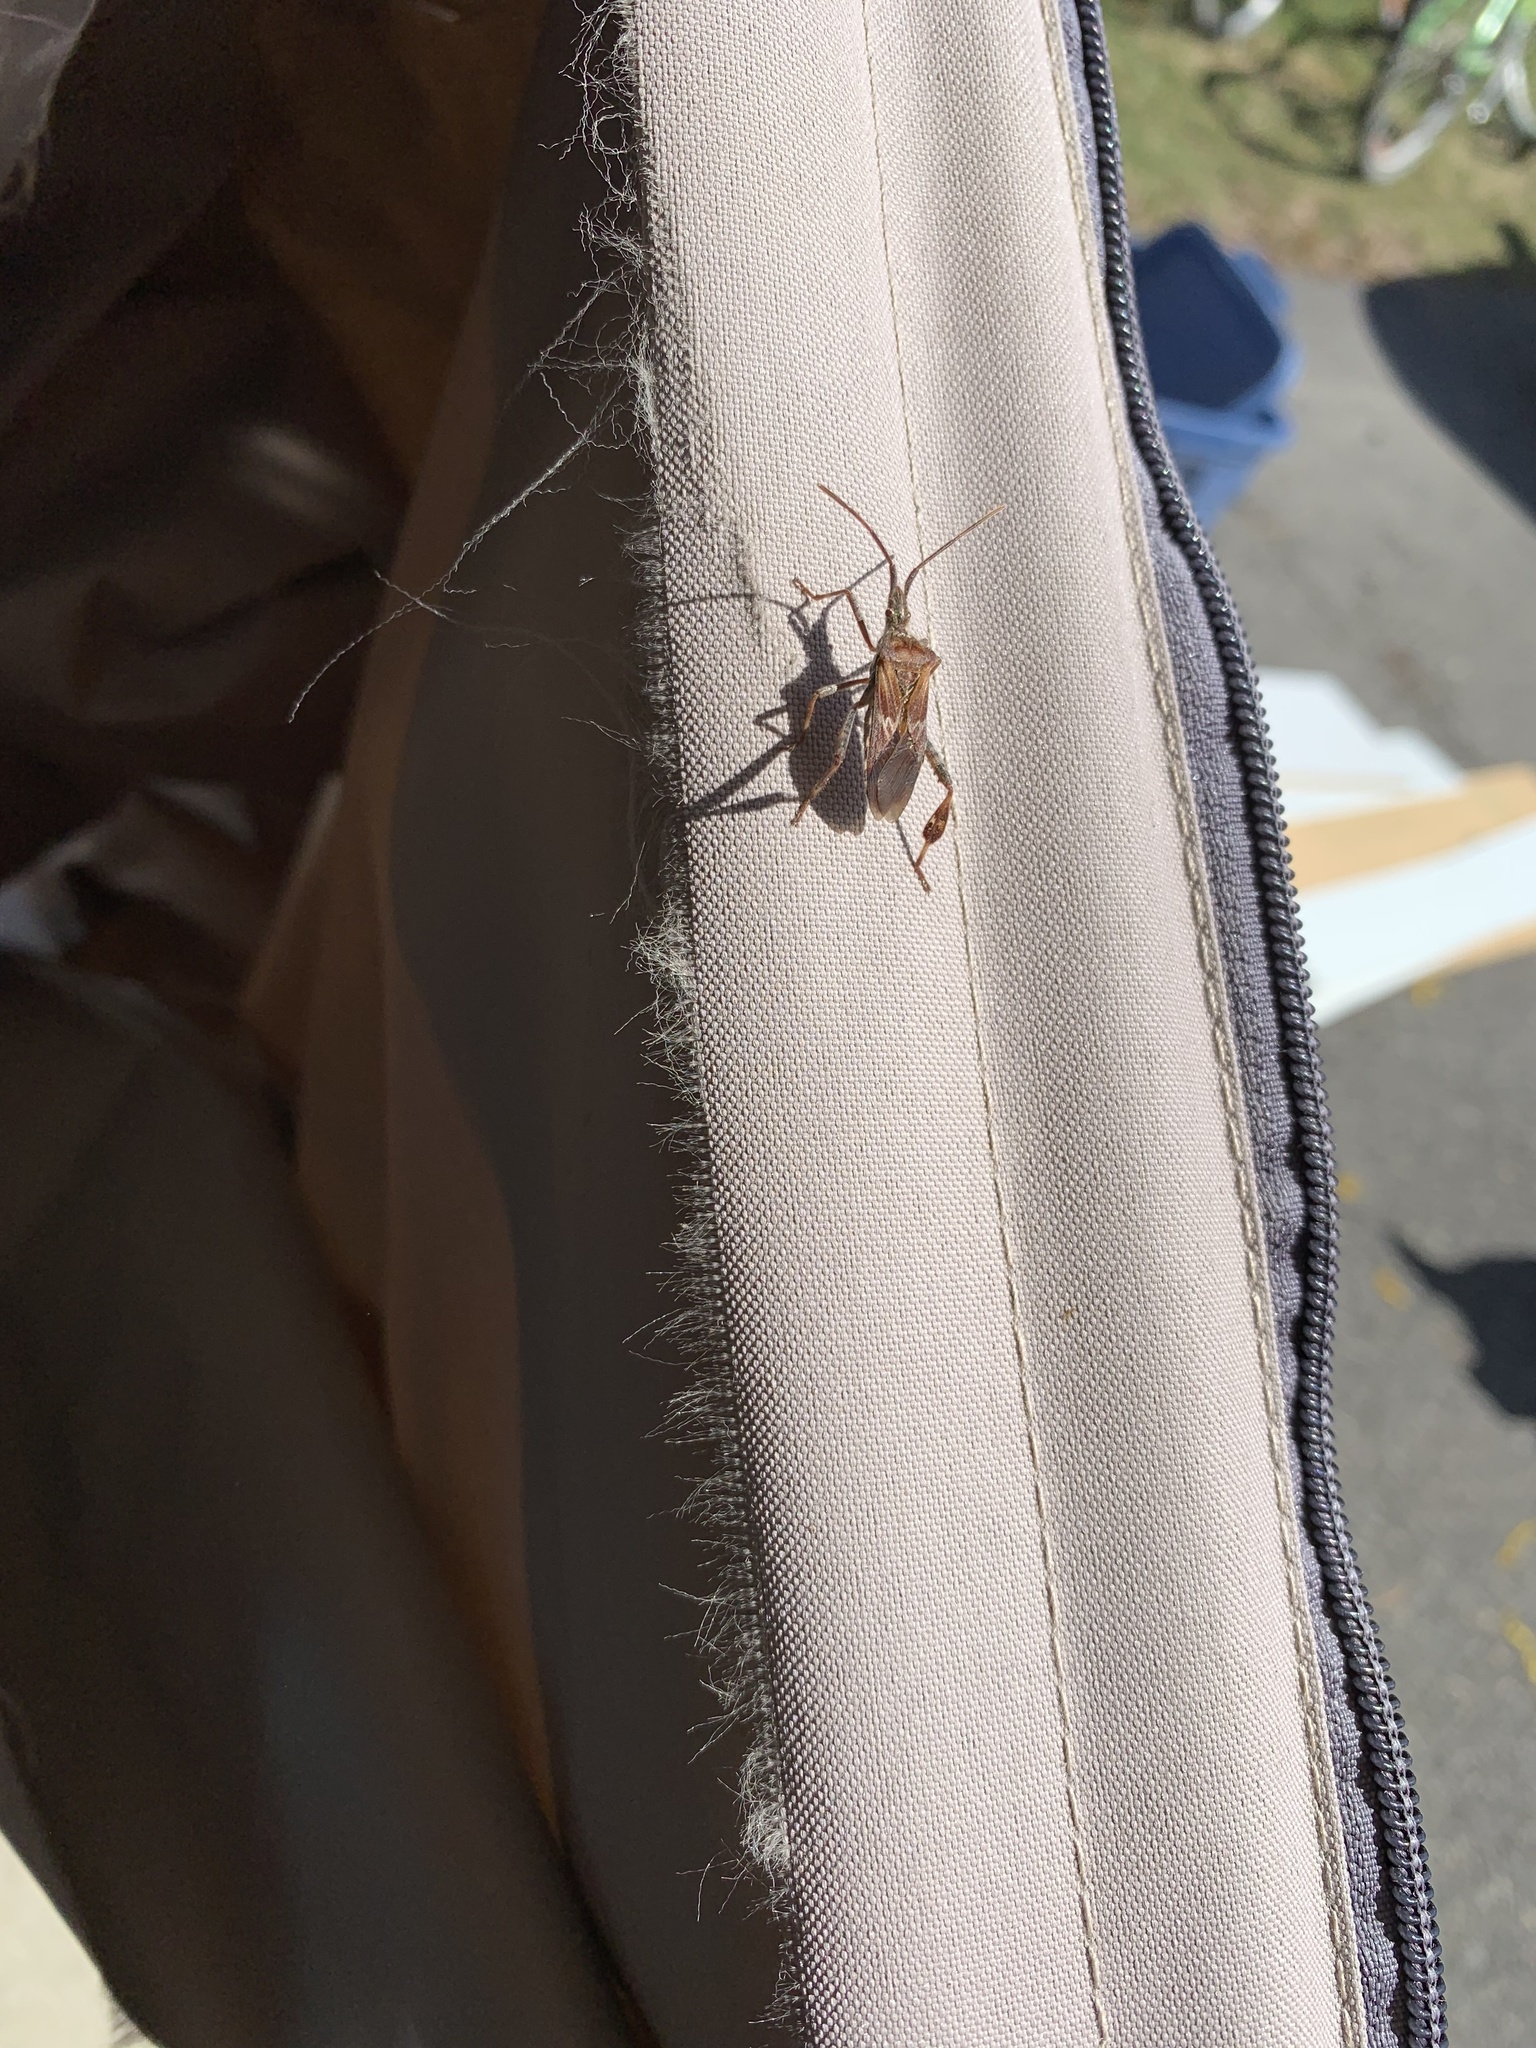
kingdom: Animalia
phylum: Arthropoda
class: Insecta
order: Hemiptera
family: Coreidae
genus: Leptoglossus
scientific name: Leptoglossus occidentalis
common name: Western conifer-seed bug
